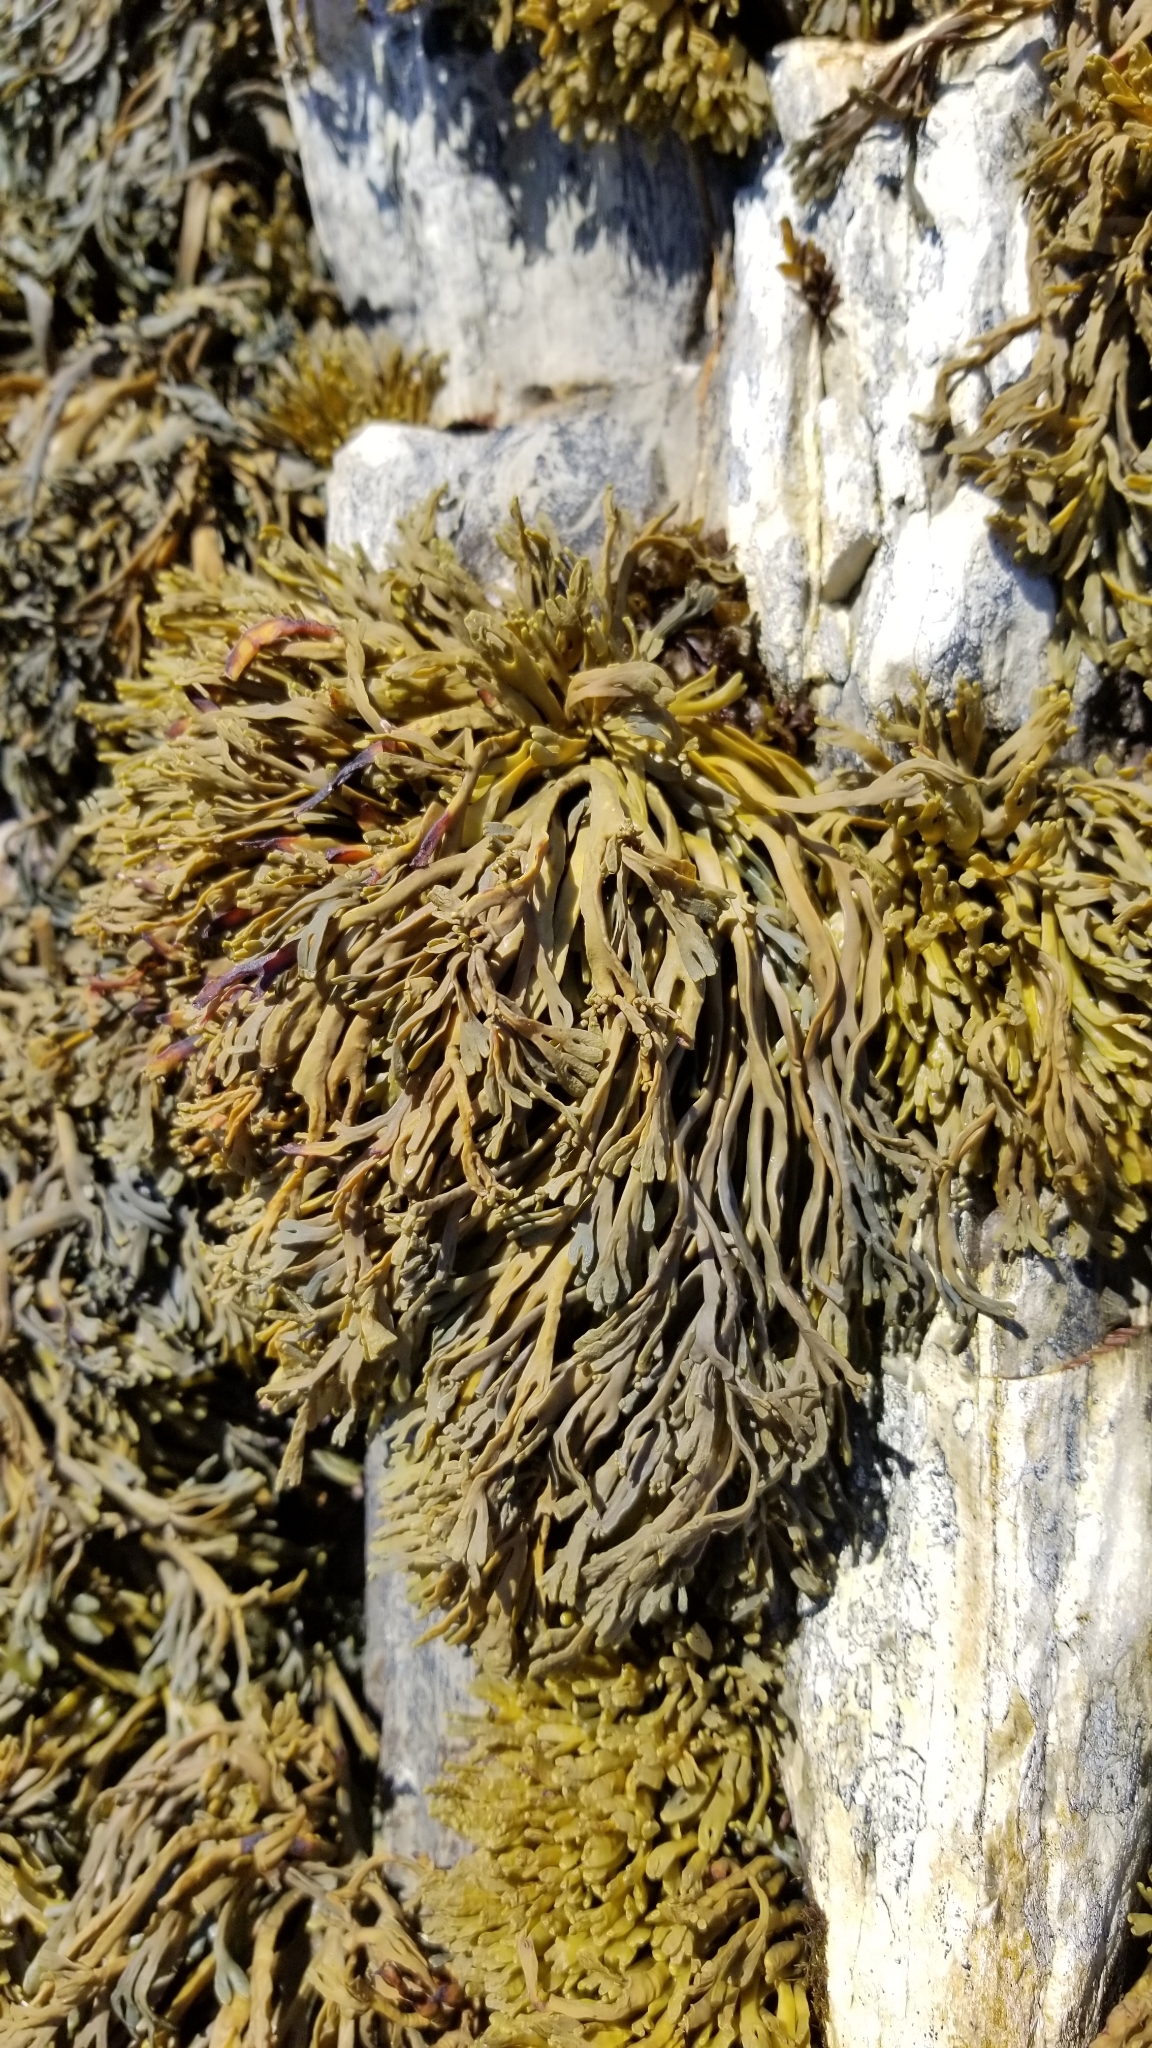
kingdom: Chromista
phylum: Ochrophyta
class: Phaeophyceae
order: Fucales
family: Fucaceae
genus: Silvetia
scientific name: Silvetia
